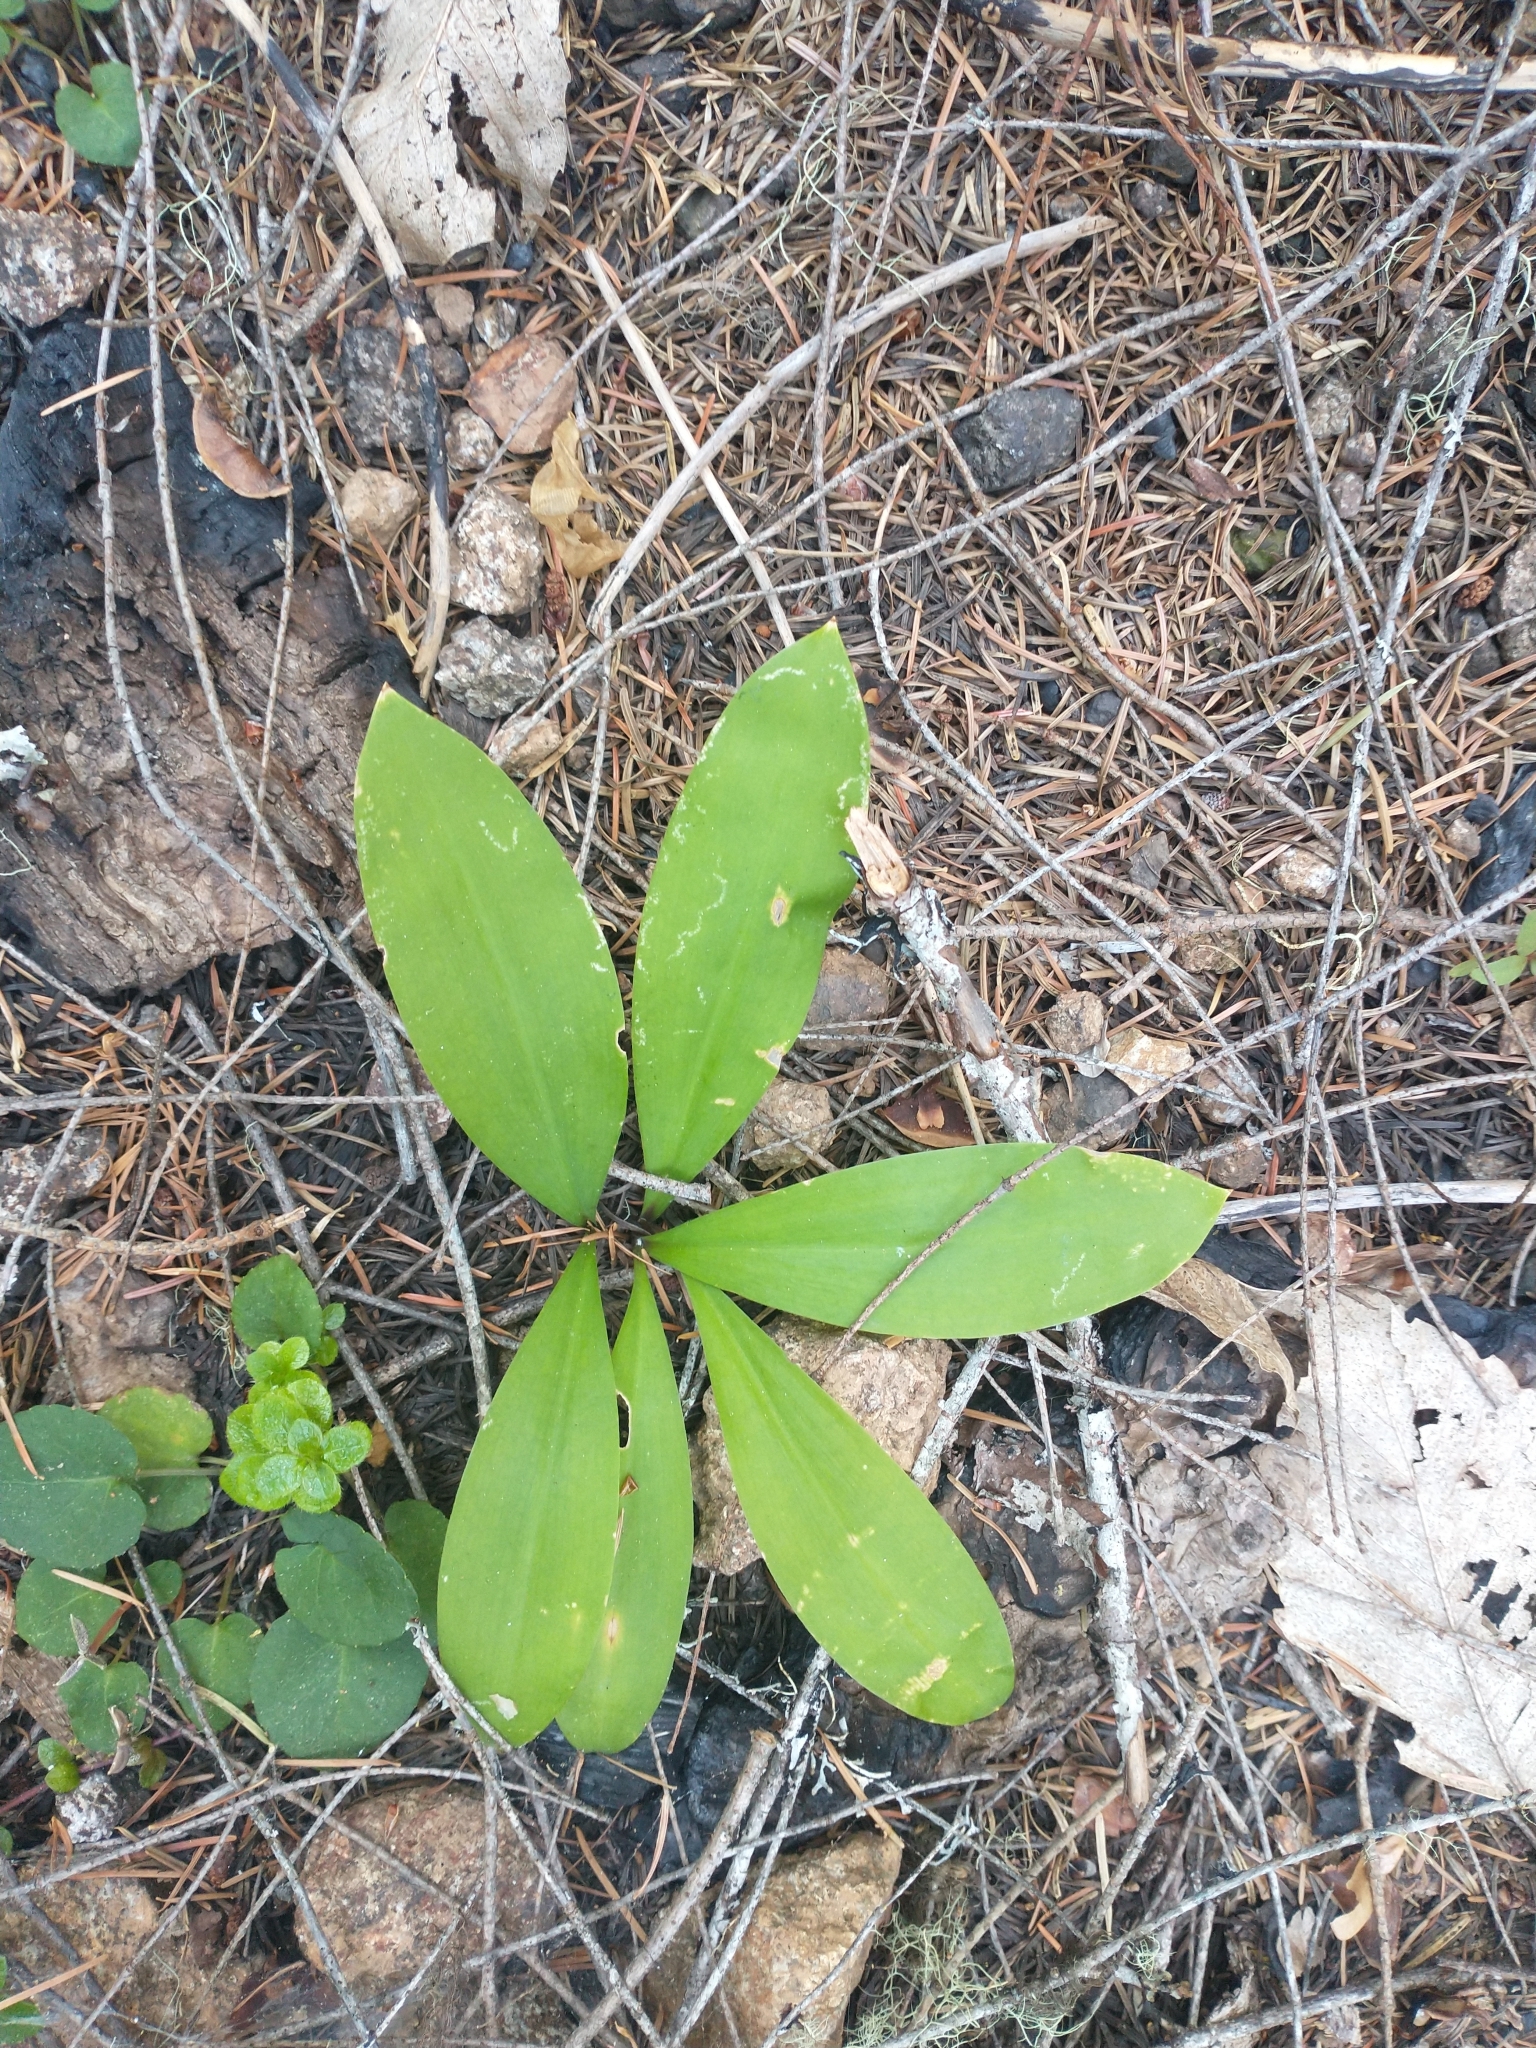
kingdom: Plantae
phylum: Tracheophyta
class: Liliopsida
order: Liliales
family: Liliaceae
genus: Clintonia
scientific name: Clintonia uniflora
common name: Queen's cup
